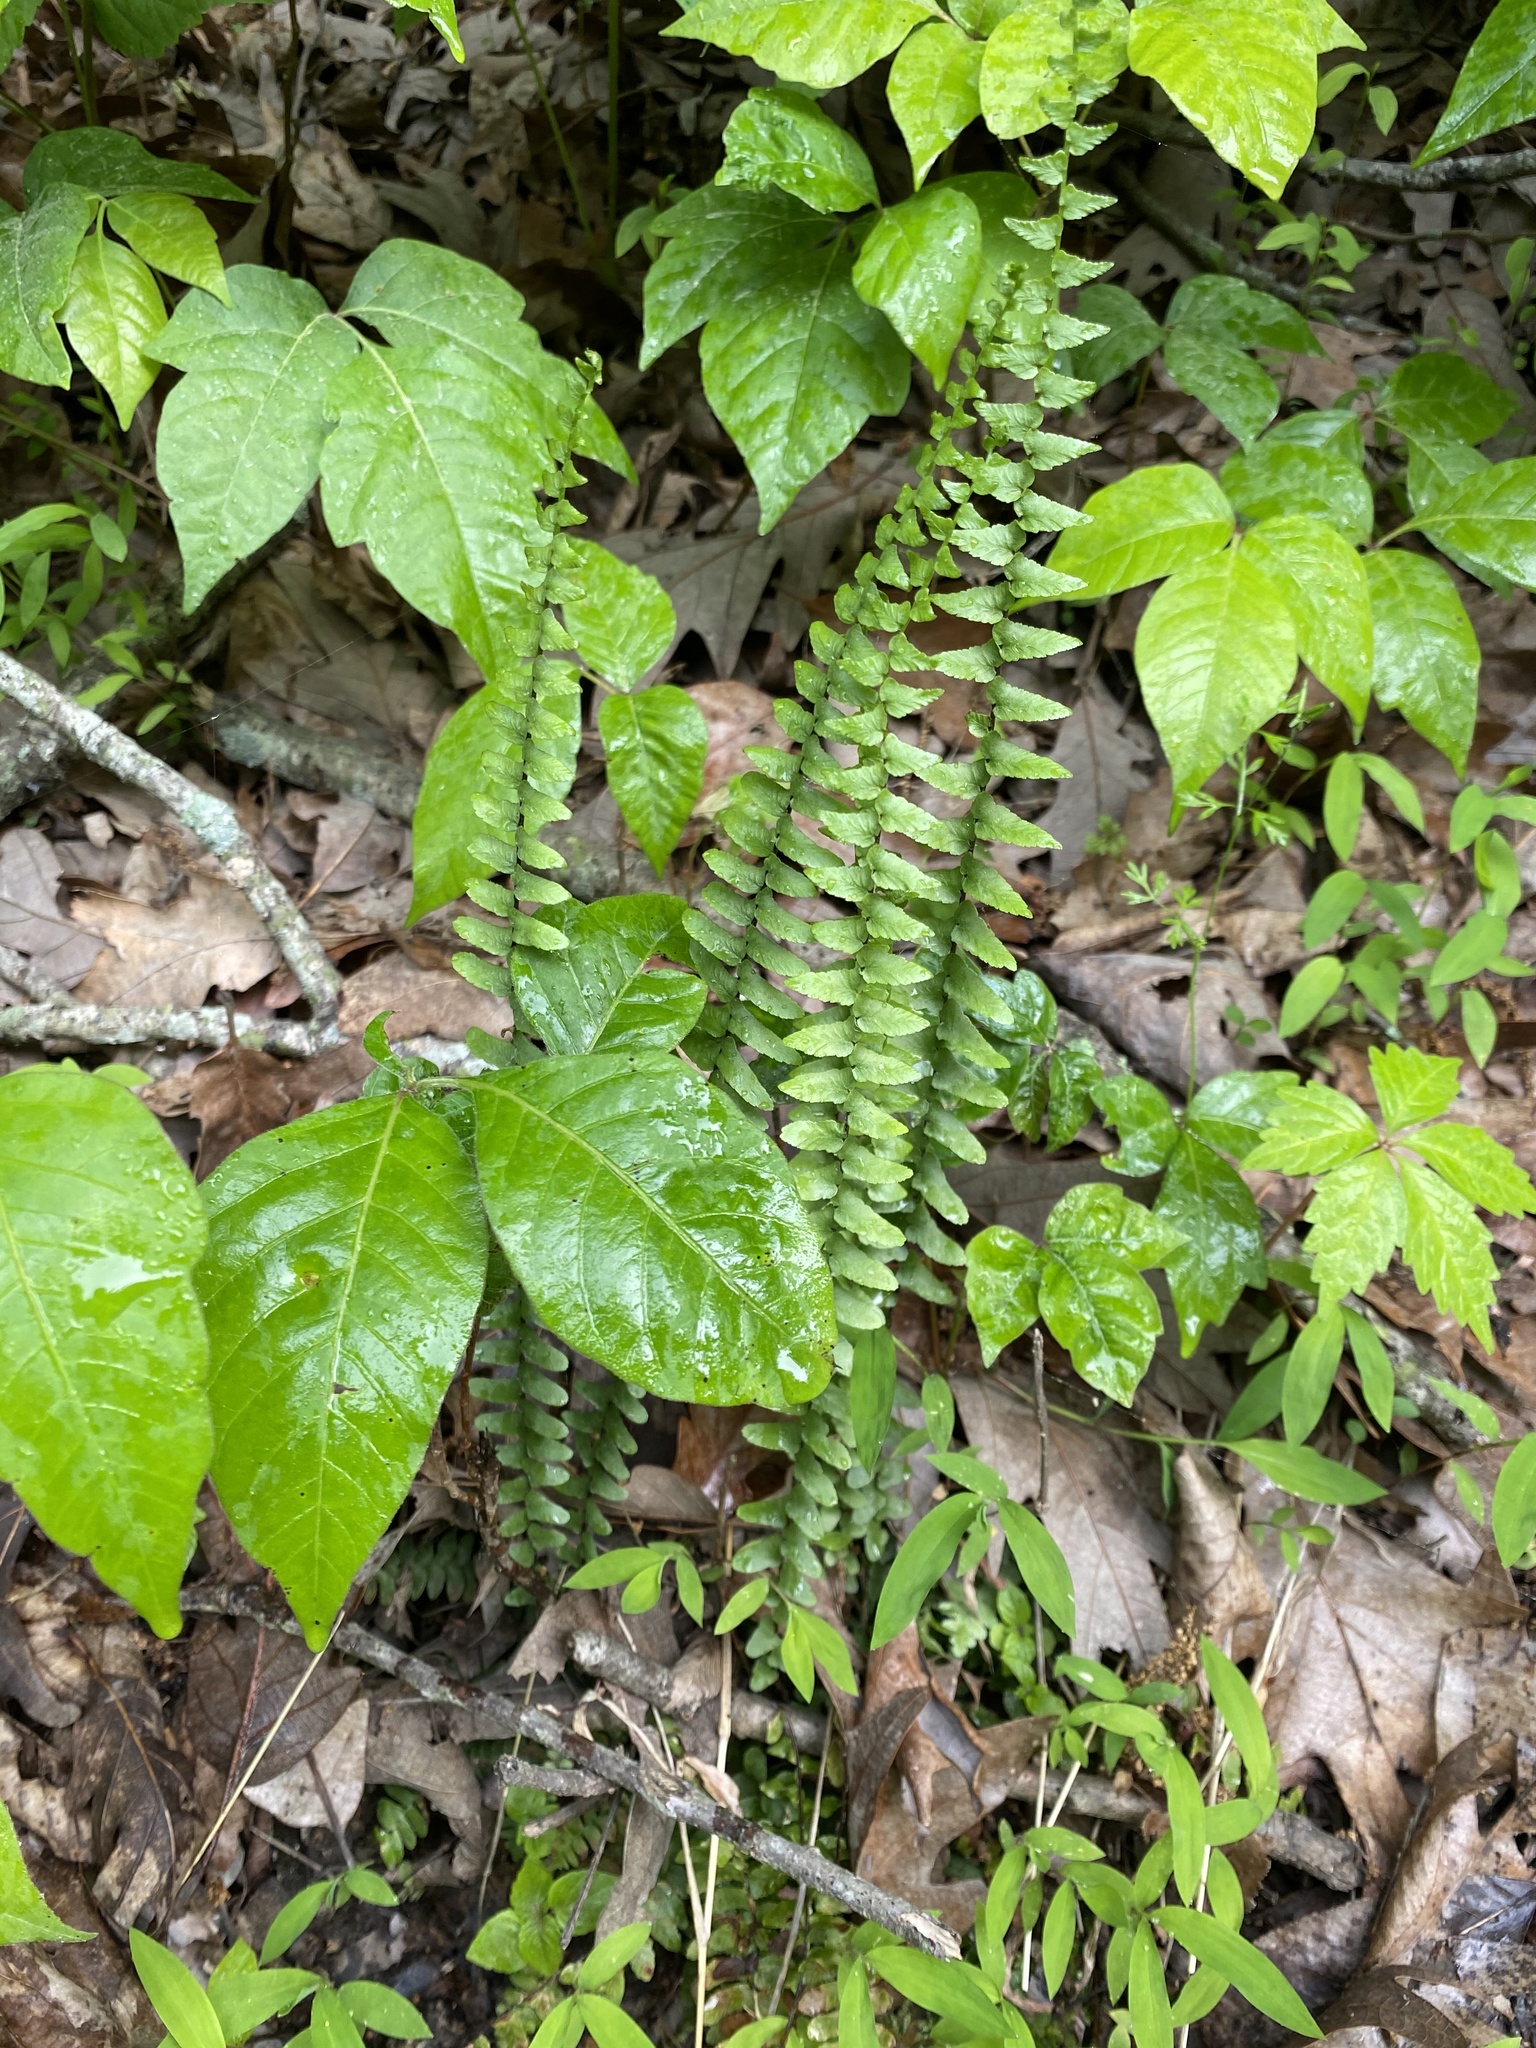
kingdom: Plantae
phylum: Tracheophyta
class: Polypodiopsida
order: Polypodiales
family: Aspleniaceae
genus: Asplenium
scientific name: Asplenium platyneuron
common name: Ebony spleenwort
